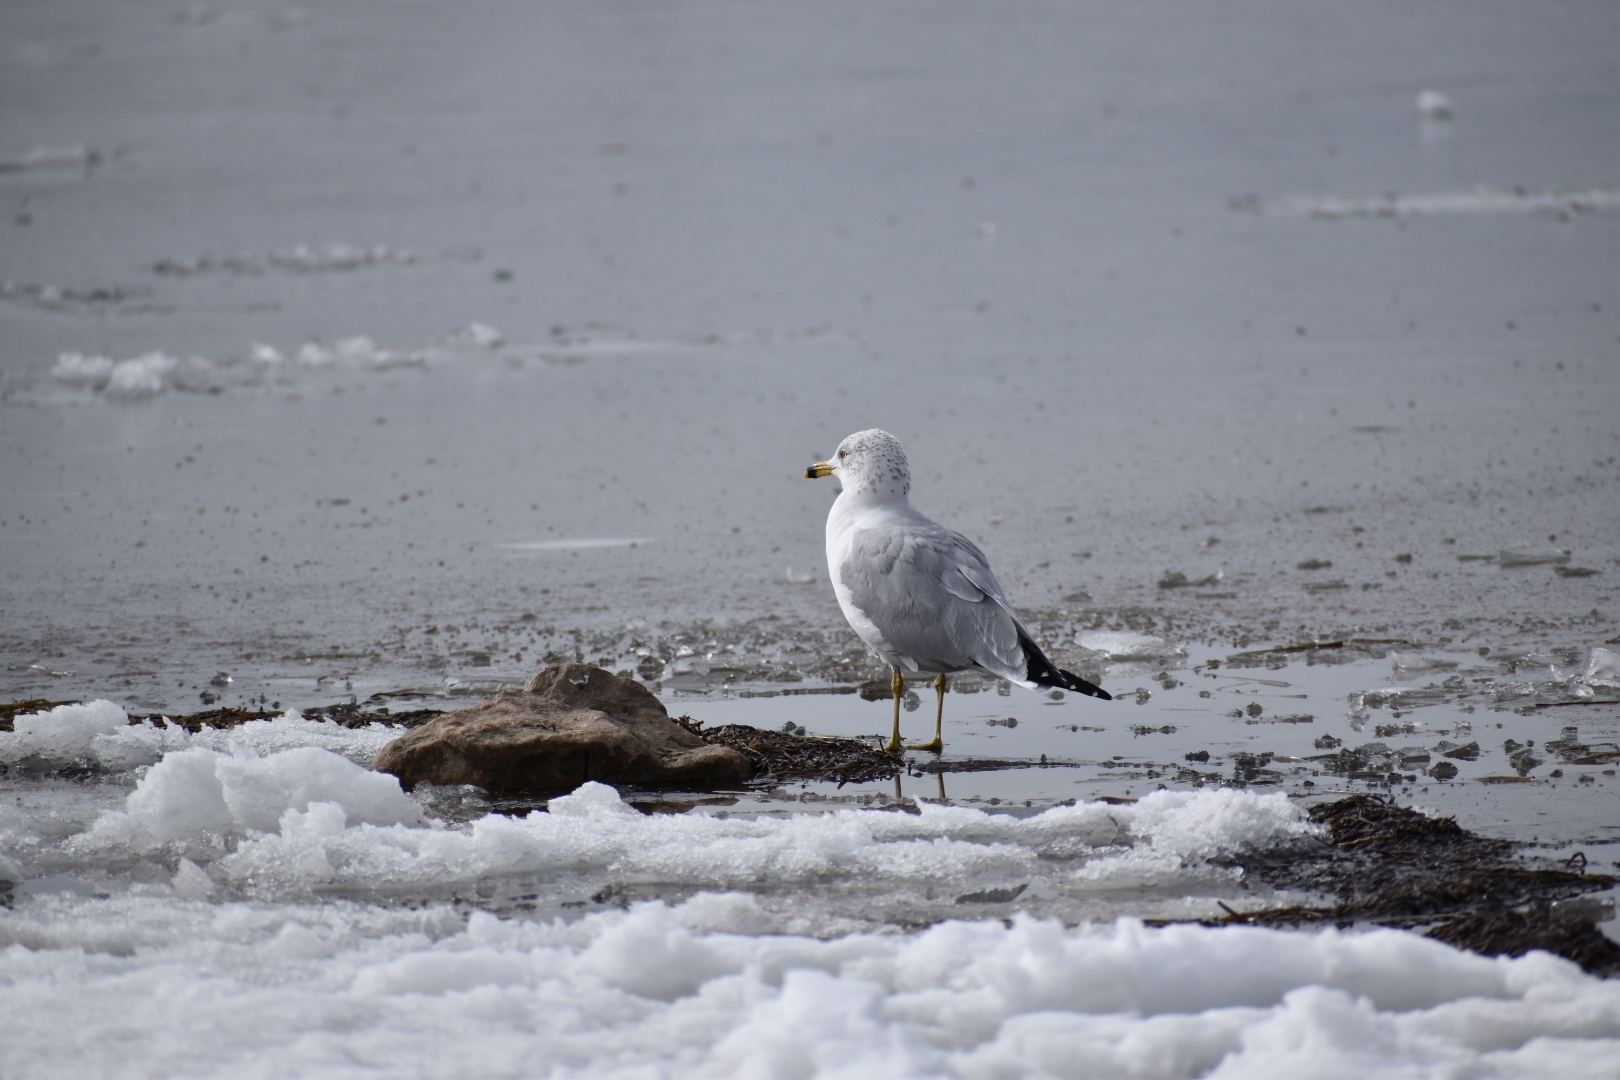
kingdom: Animalia
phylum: Chordata
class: Aves
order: Charadriiformes
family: Laridae
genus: Larus
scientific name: Larus delawarensis
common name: Ring-billed gull
